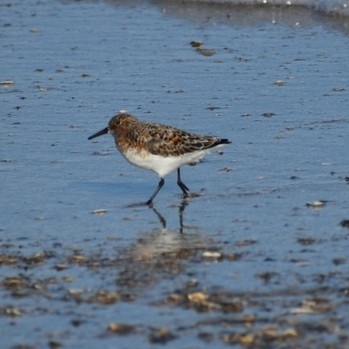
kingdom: Animalia
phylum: Chordata
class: Aves
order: Charadriiformes
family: Scolopacidae
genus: Calidris
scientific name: Calidris alba
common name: Sanderling
